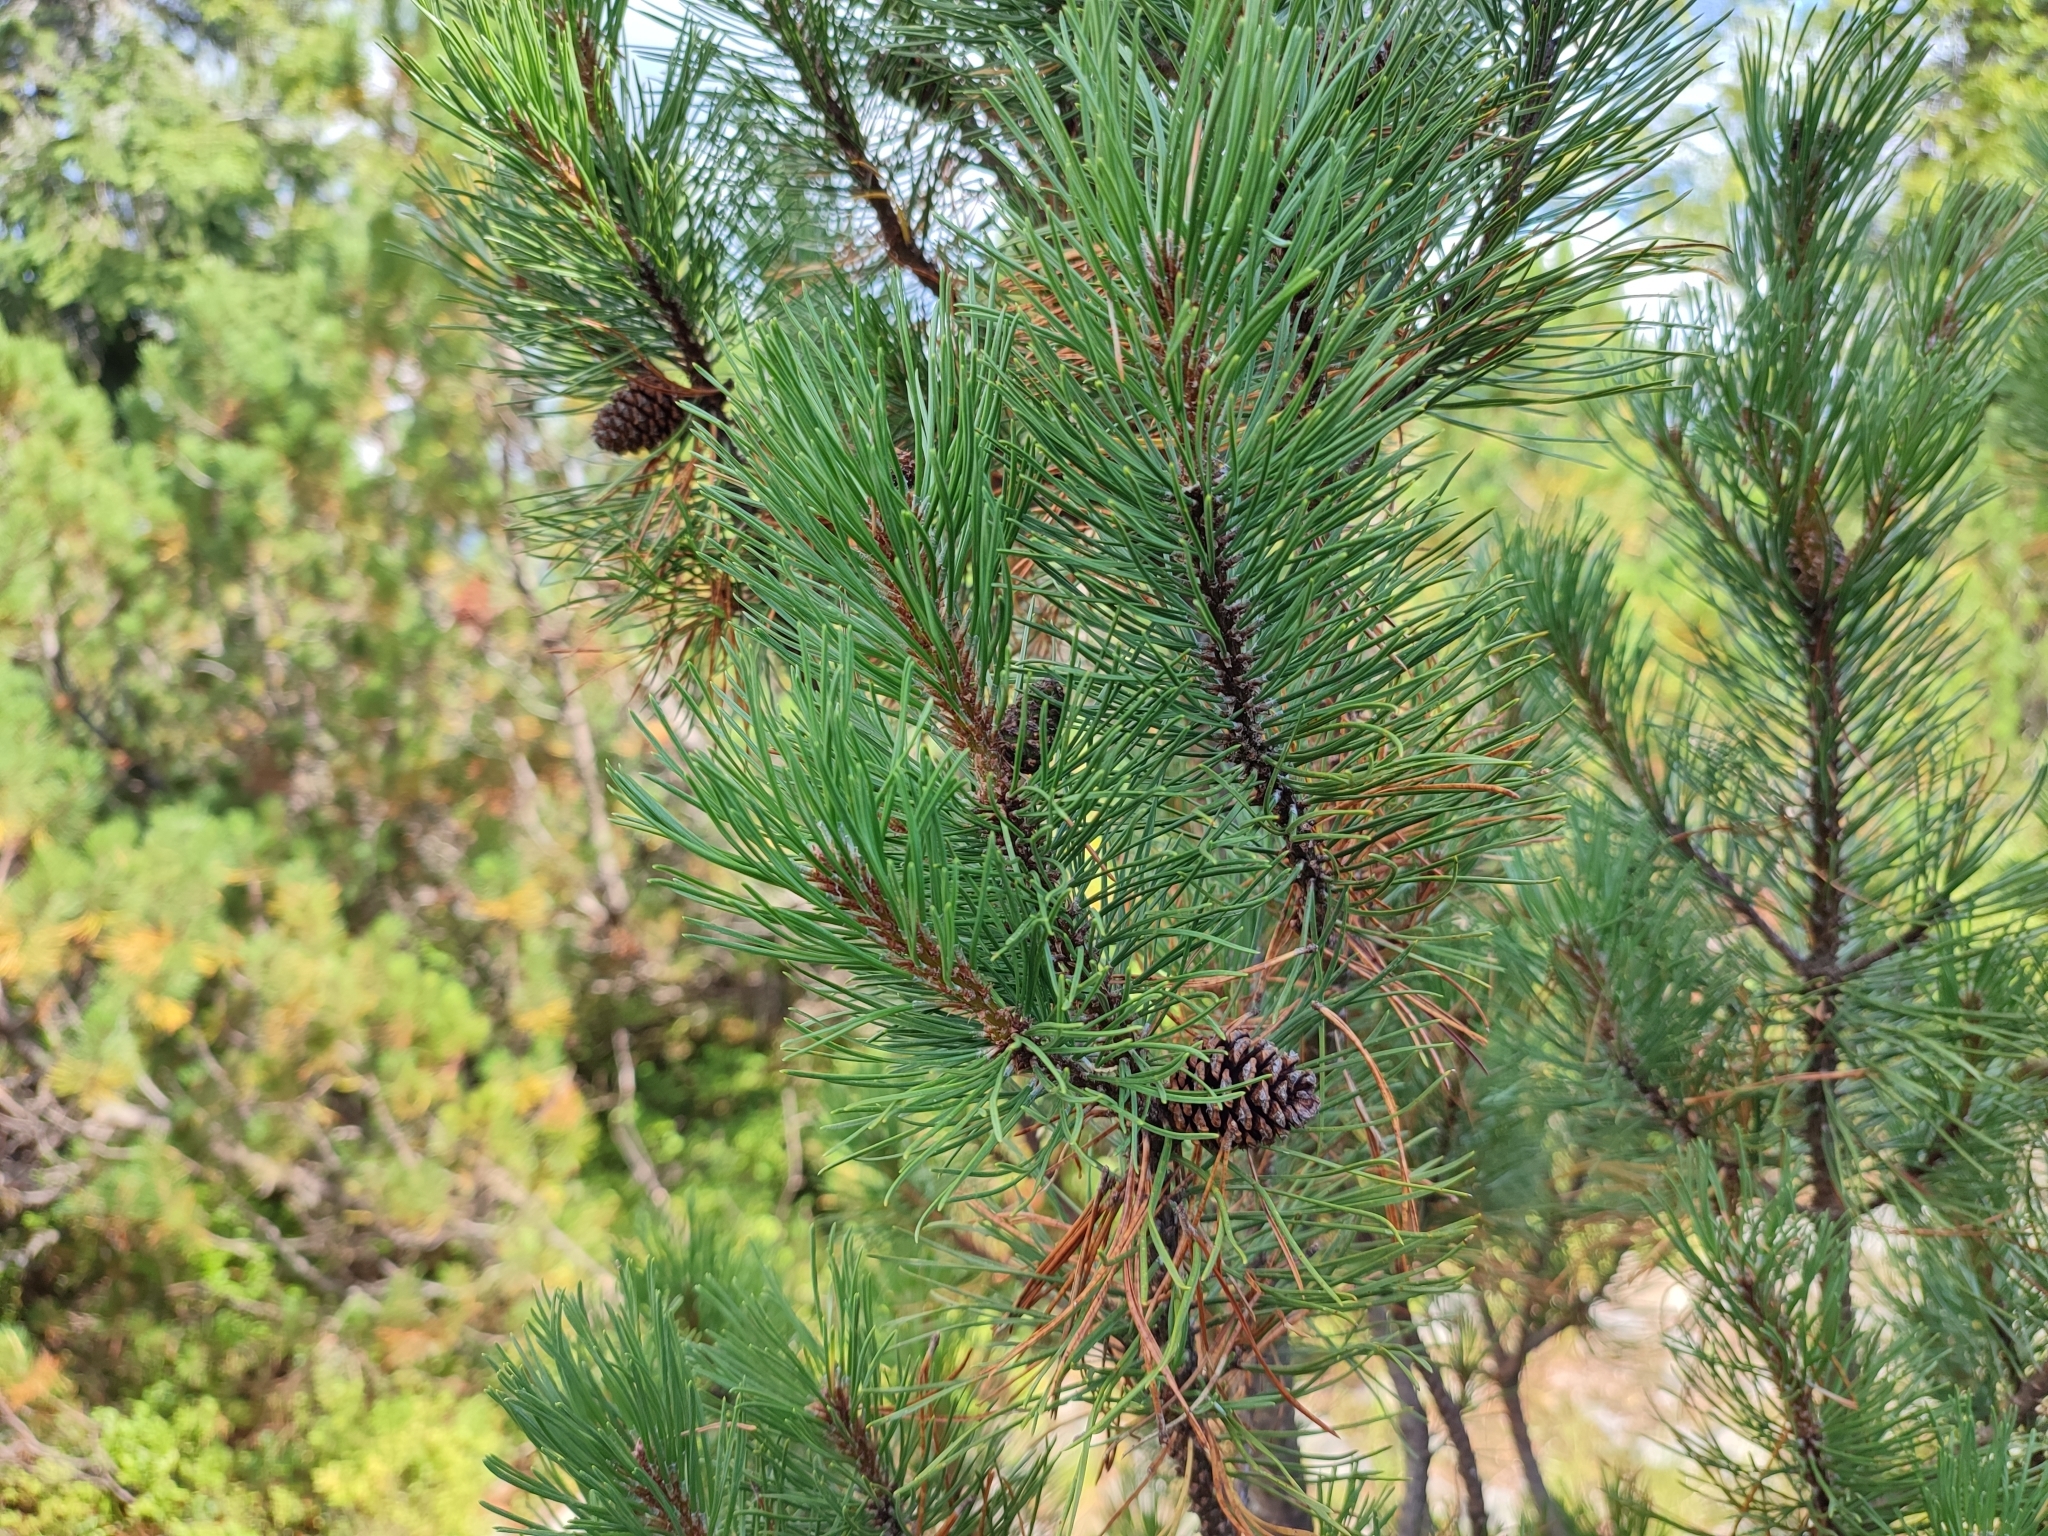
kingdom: Plantae
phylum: Tracheophyta
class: Pinopsida
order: Pinales
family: Pinaceae
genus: Pinus
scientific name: Pinus mugo
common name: Mugo pine
